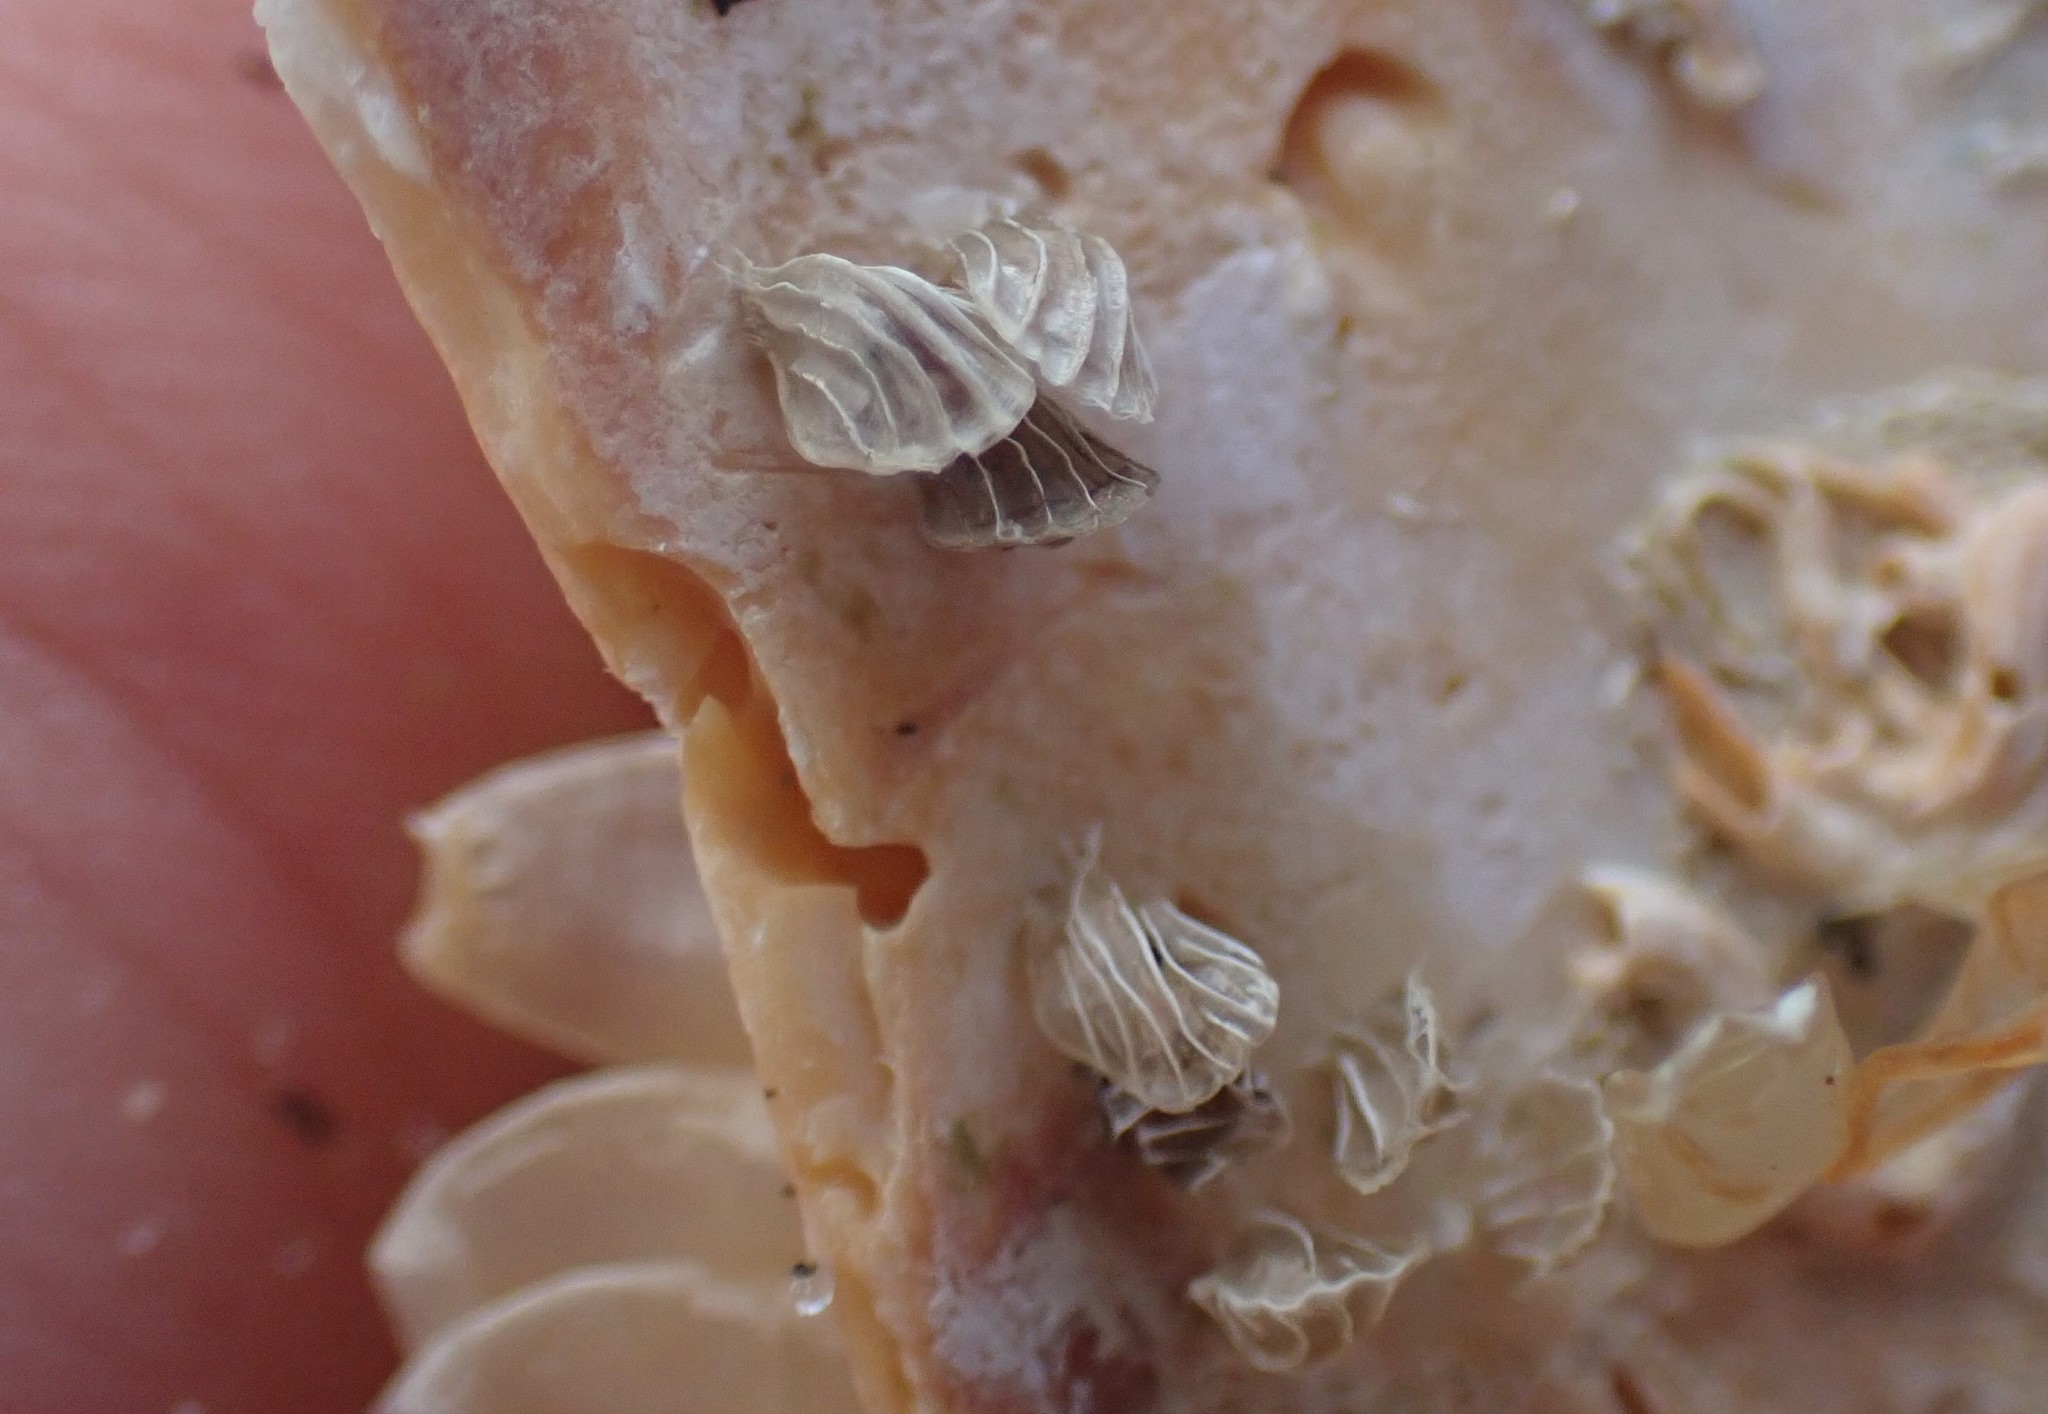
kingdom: Animalia
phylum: Mollusca
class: Gastropoda
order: Neogastropoda
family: Cominellidae
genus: Cominella
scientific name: Cominella quoyana
